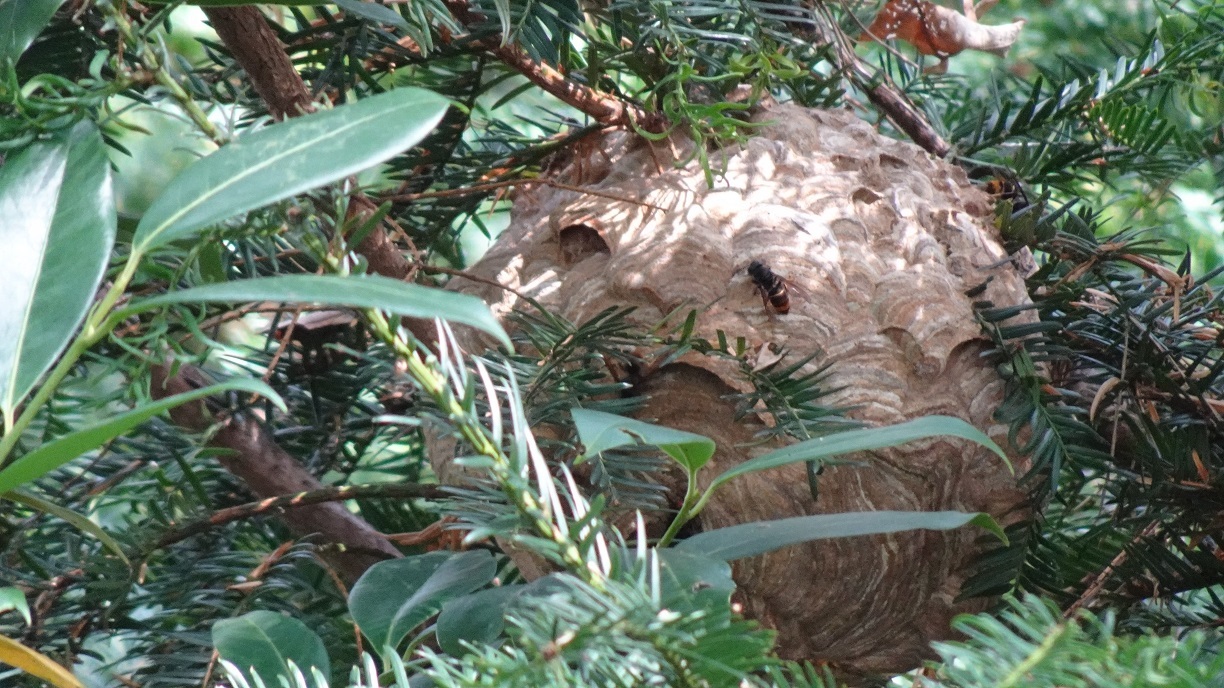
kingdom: Animalia
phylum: Arthropoda
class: Insecta
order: Hymenoptera
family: Vespidae
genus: Vespa
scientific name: Vespa velutina
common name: Asian hornet
